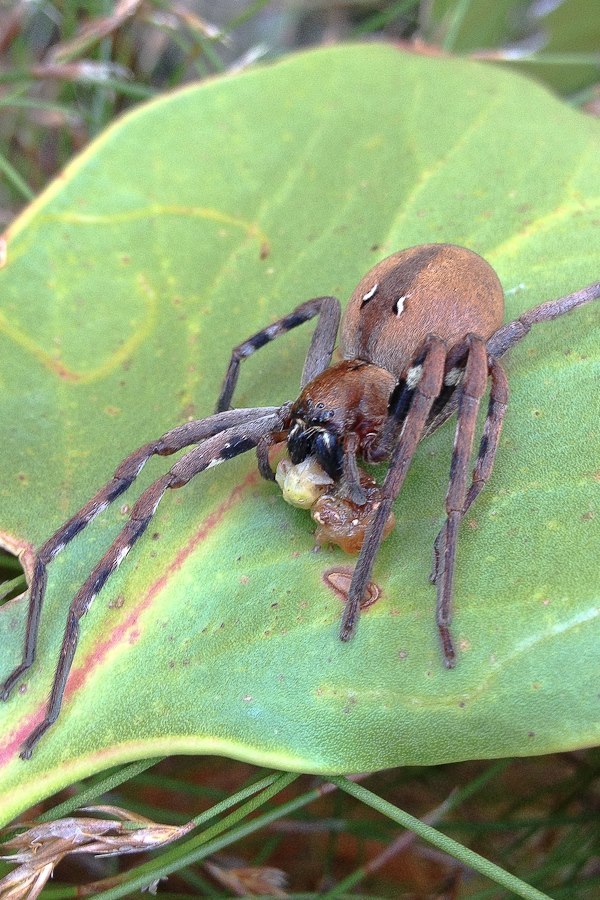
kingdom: Animalia
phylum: Arthropoda
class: Arachnida
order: Araneae
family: Sparassidae
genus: Palystes
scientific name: Palystes stilleri
